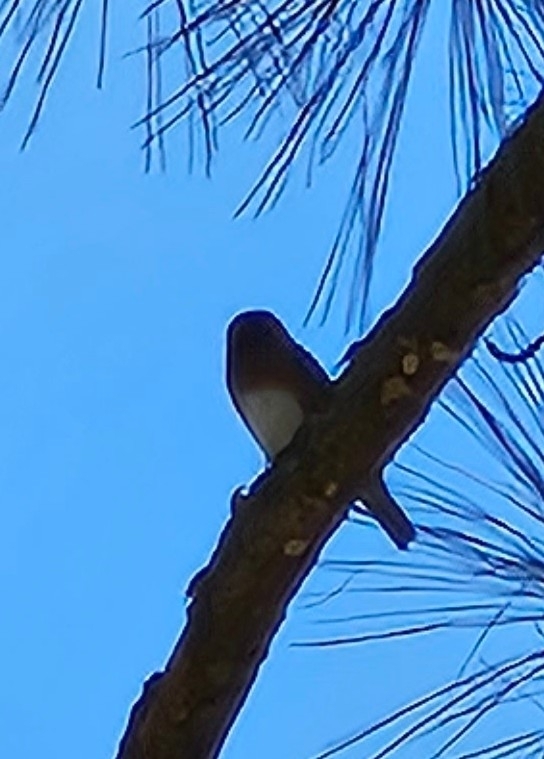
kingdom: Animalia
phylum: Chordata
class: Aves
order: Passeriformes
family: Turdidae
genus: Sialia
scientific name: Sialia sialis
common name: Eastern bluebird
